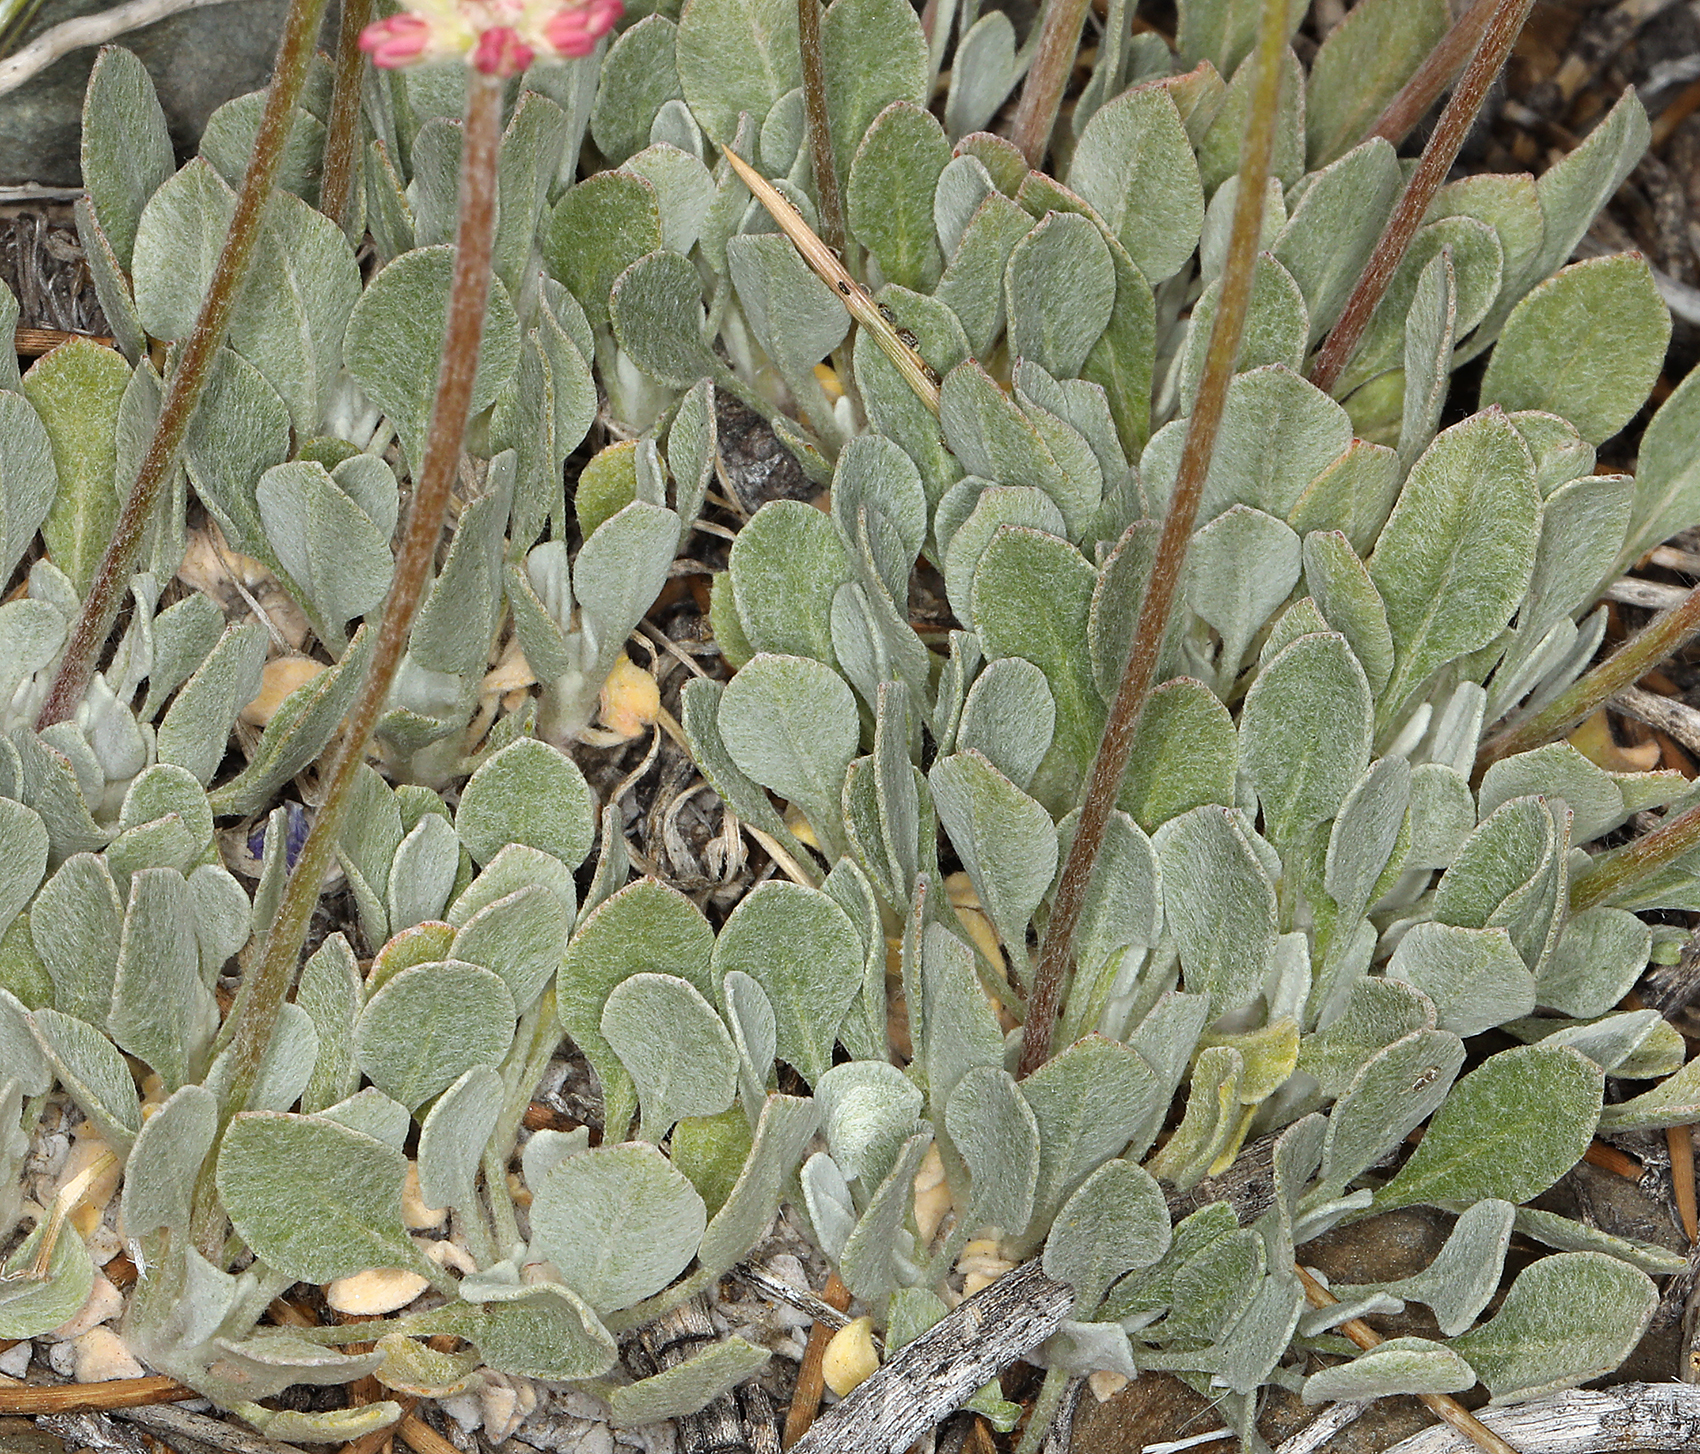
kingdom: Plantae
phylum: Tracheophyta
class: Magnoliopsida
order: Caryophyllales
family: Polygonaceae
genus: Eriogonum
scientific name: Eriogonum ovalifolium
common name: Cushion buckwheat
